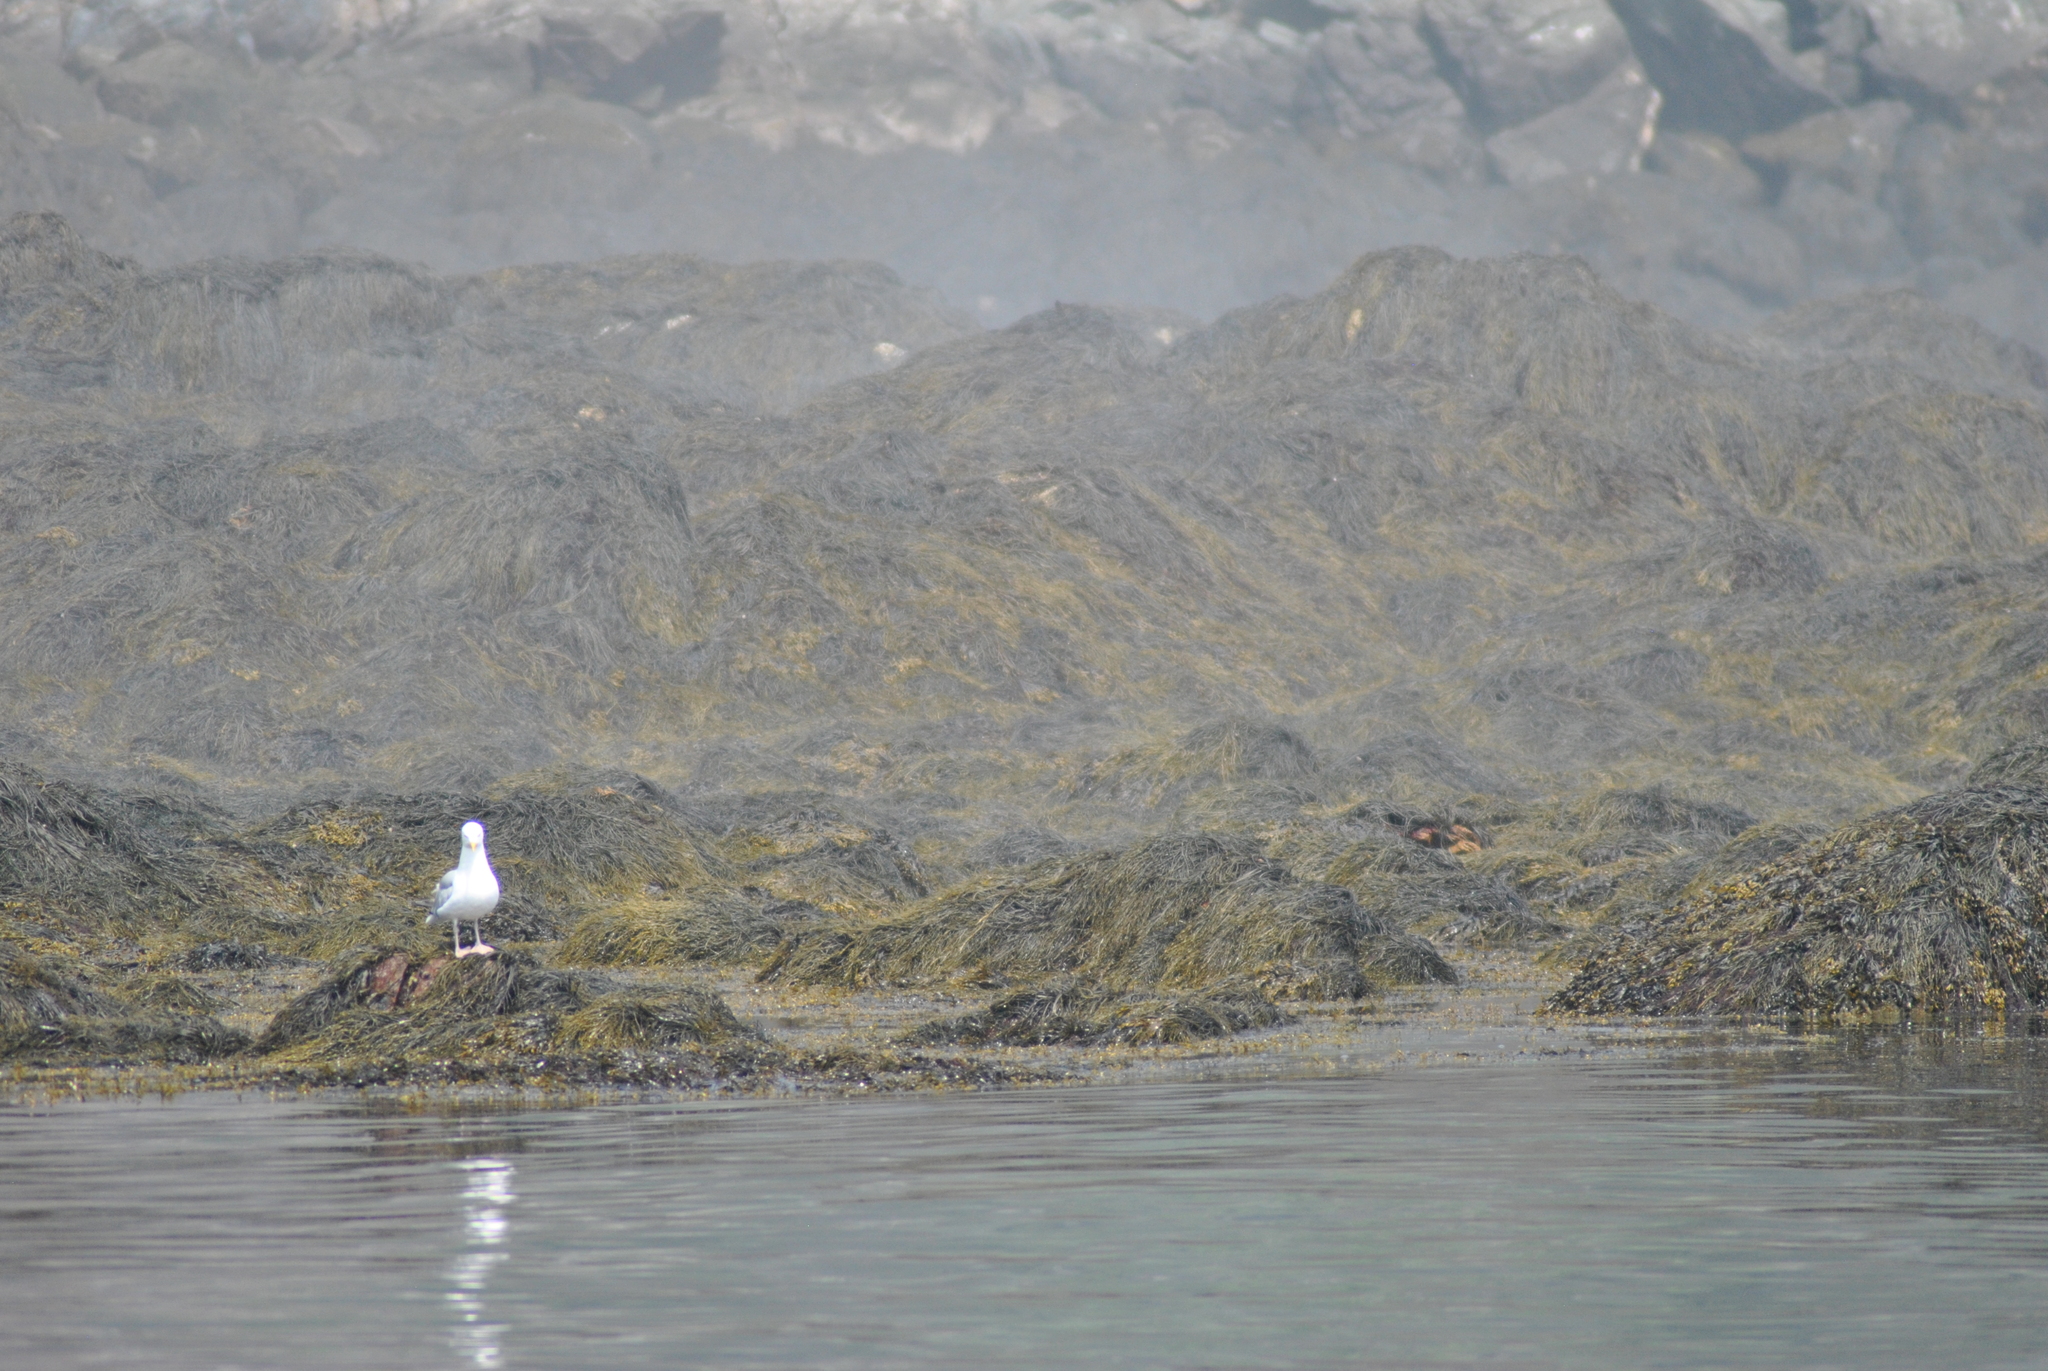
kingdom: Animalia
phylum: Chordata
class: Aves
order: Charadriiformes
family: Laridae
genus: Larus
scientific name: Larus argentatus
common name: Herring gull
